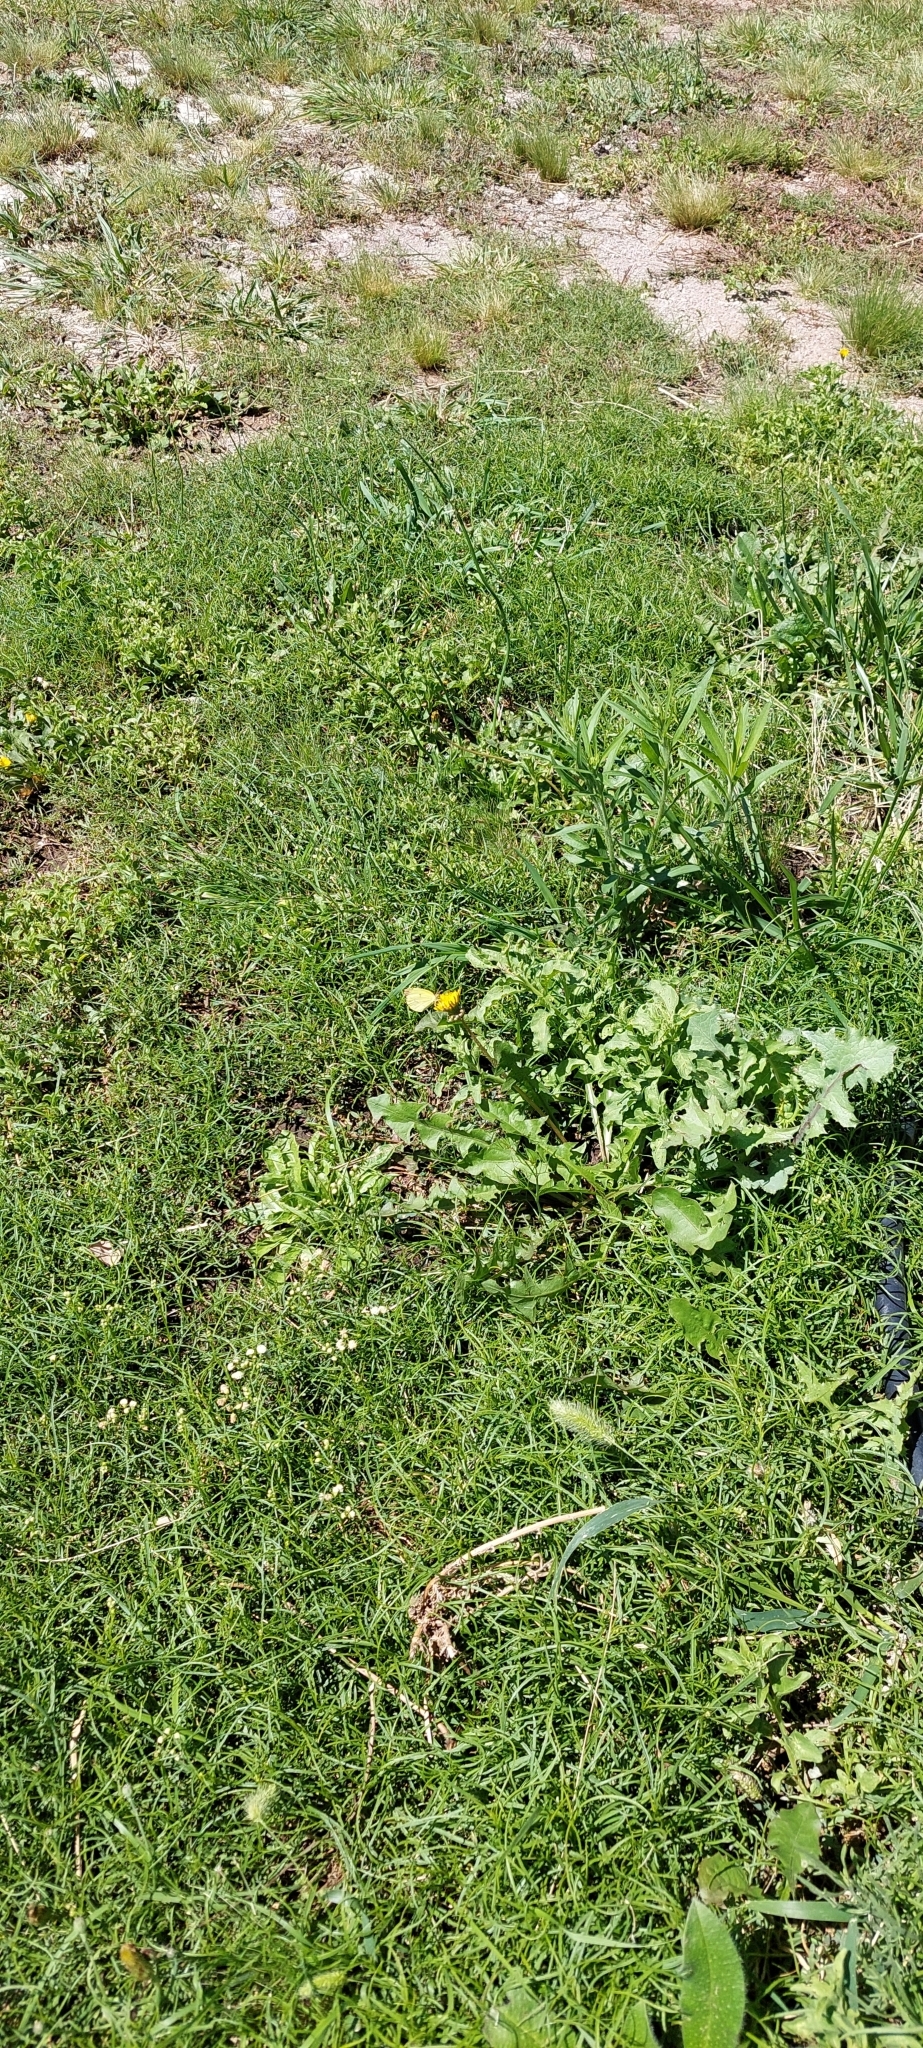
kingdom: Animalia
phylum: Arthropoda
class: Insecta
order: Lepidoptera
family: Pieridae
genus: Teriocolias
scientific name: Teriocolias
